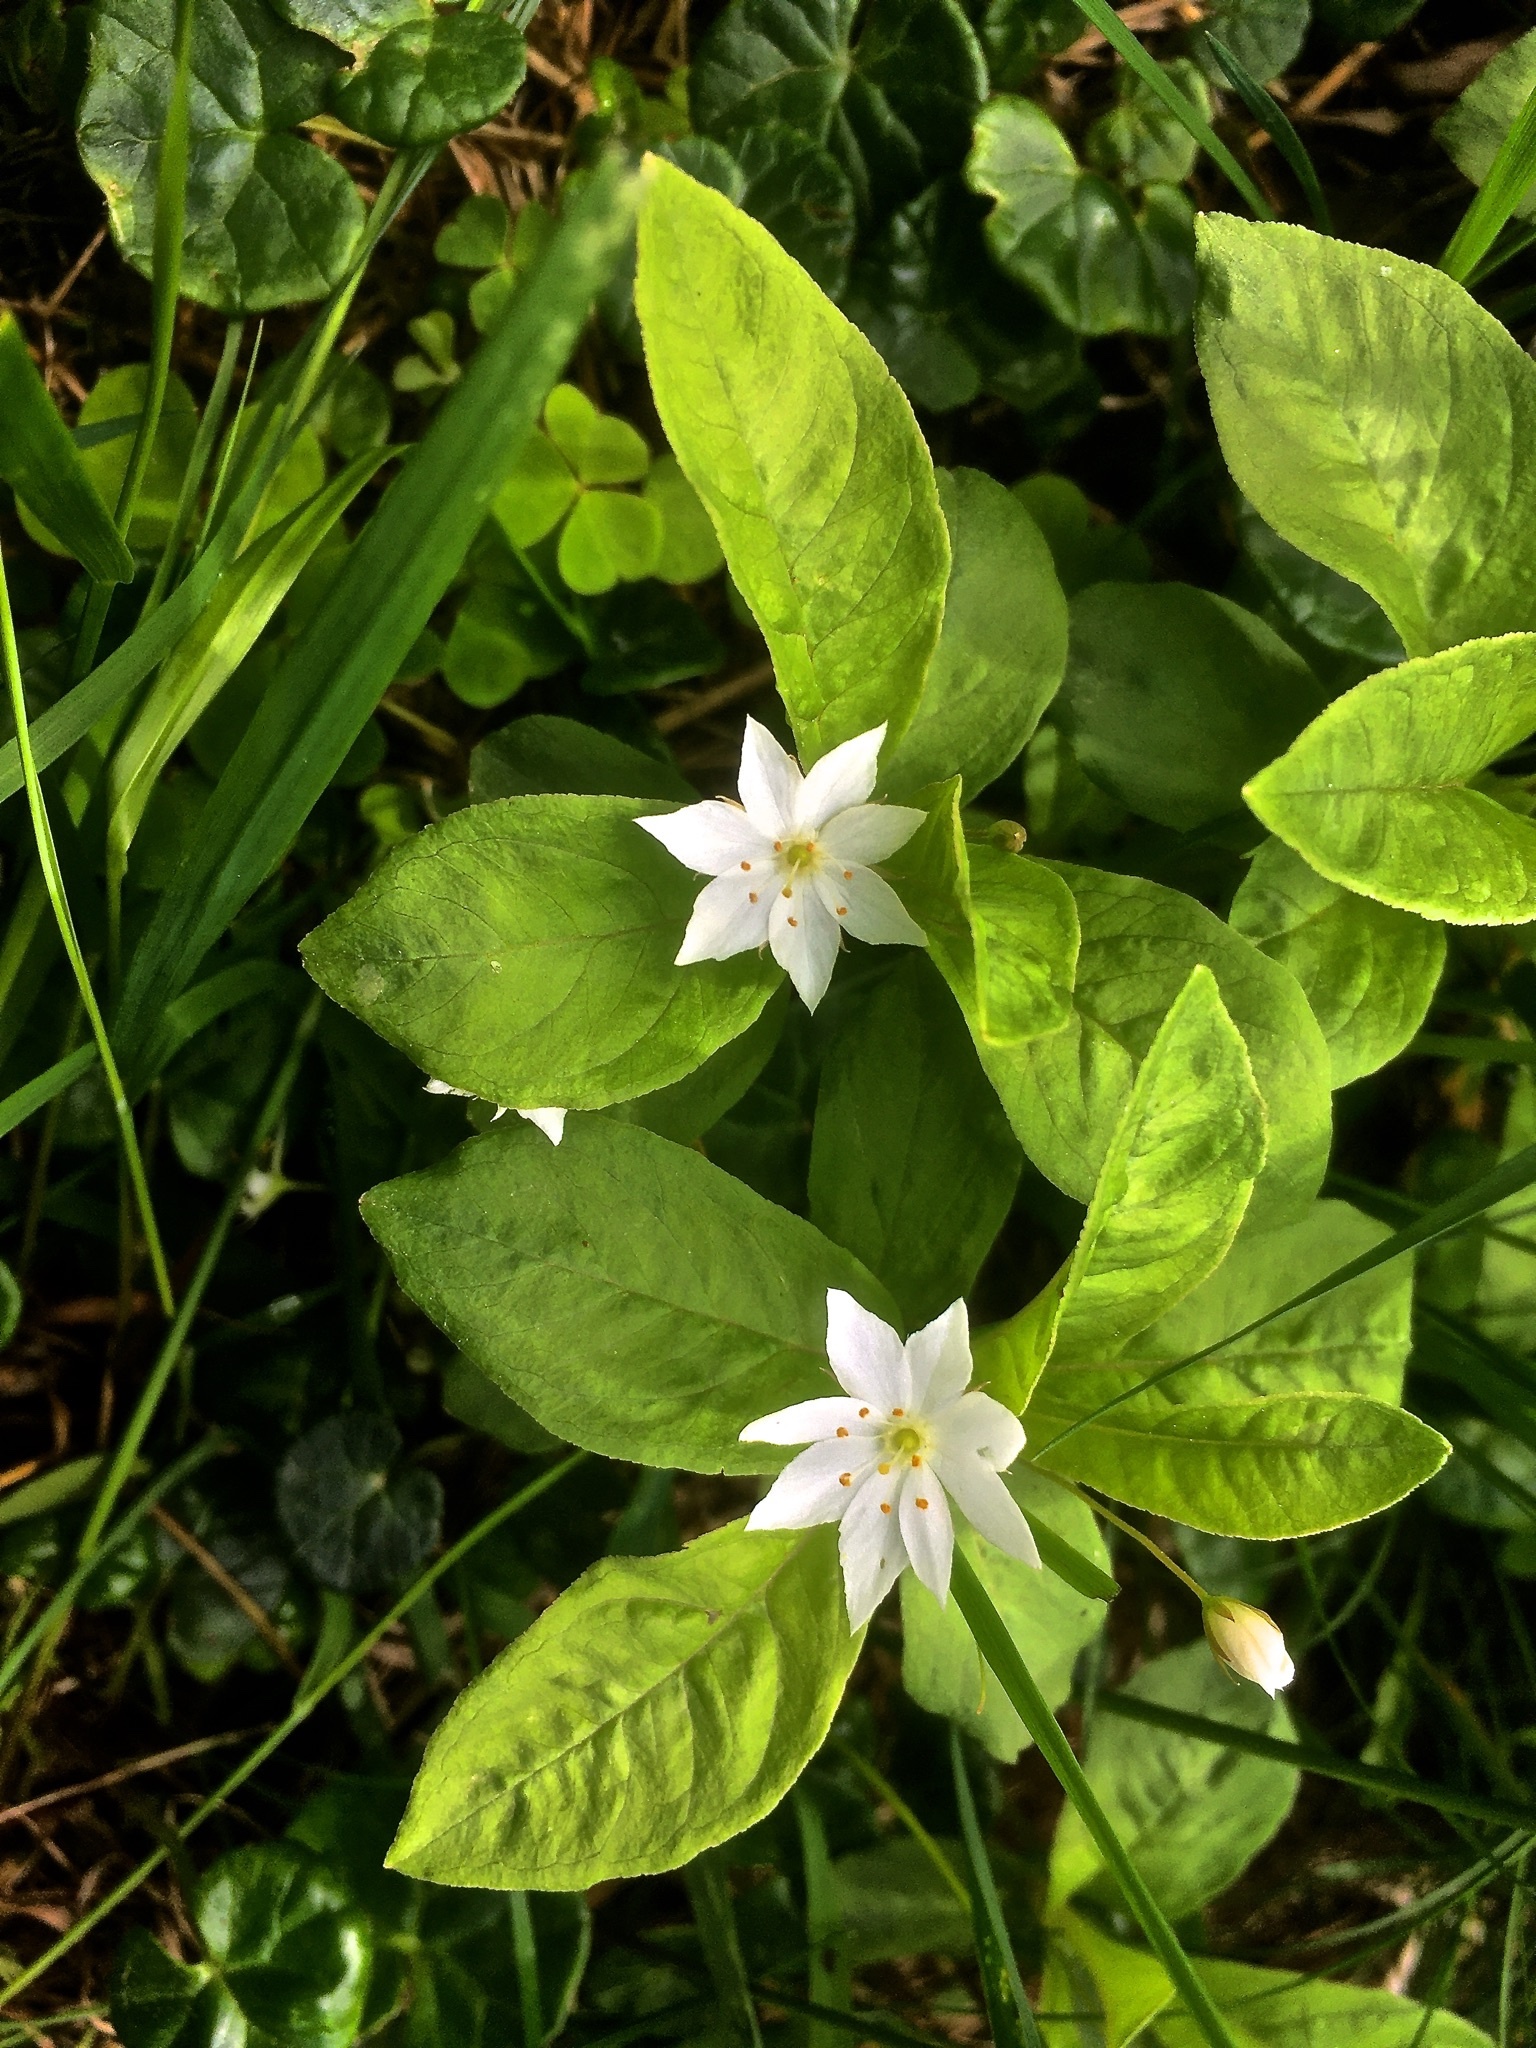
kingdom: Plantae
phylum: Tracheophyta
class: Magnoliopsida
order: Ericales
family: Primulaceae
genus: Lysimachia
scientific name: Lysimachia europaea
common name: Arctic starflower
